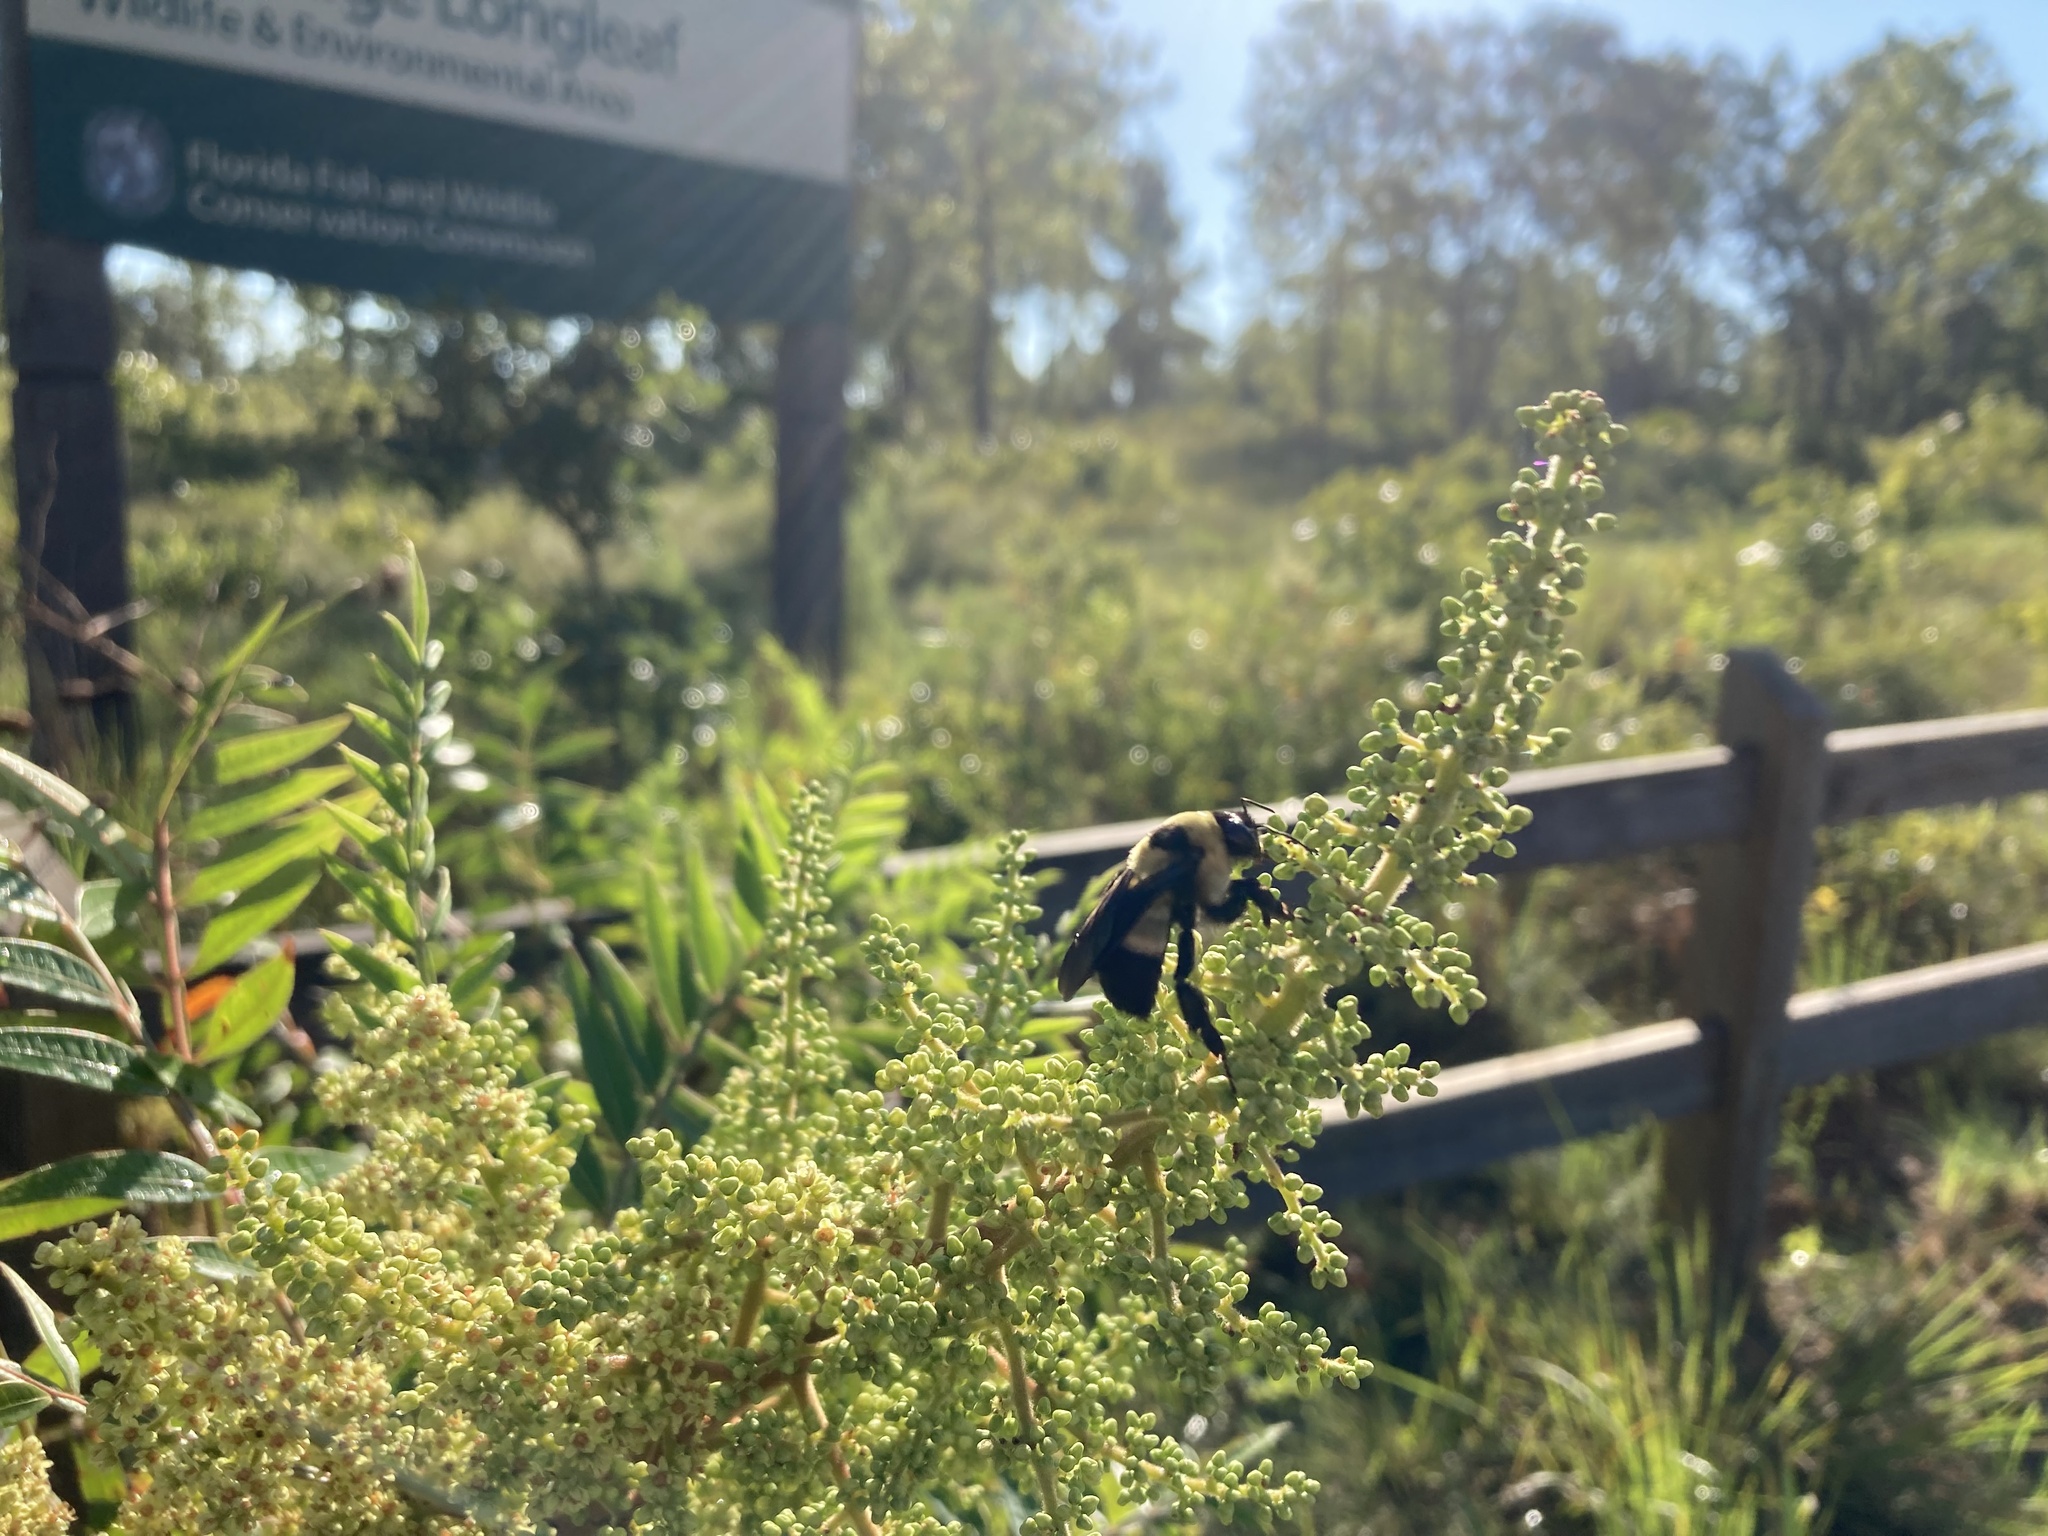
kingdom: Animalia
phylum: Arthropoda
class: Insecta
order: Hymenoptera
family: Apidae
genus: Bombus
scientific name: Bombus fraternus
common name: Southern plains bumble bee
